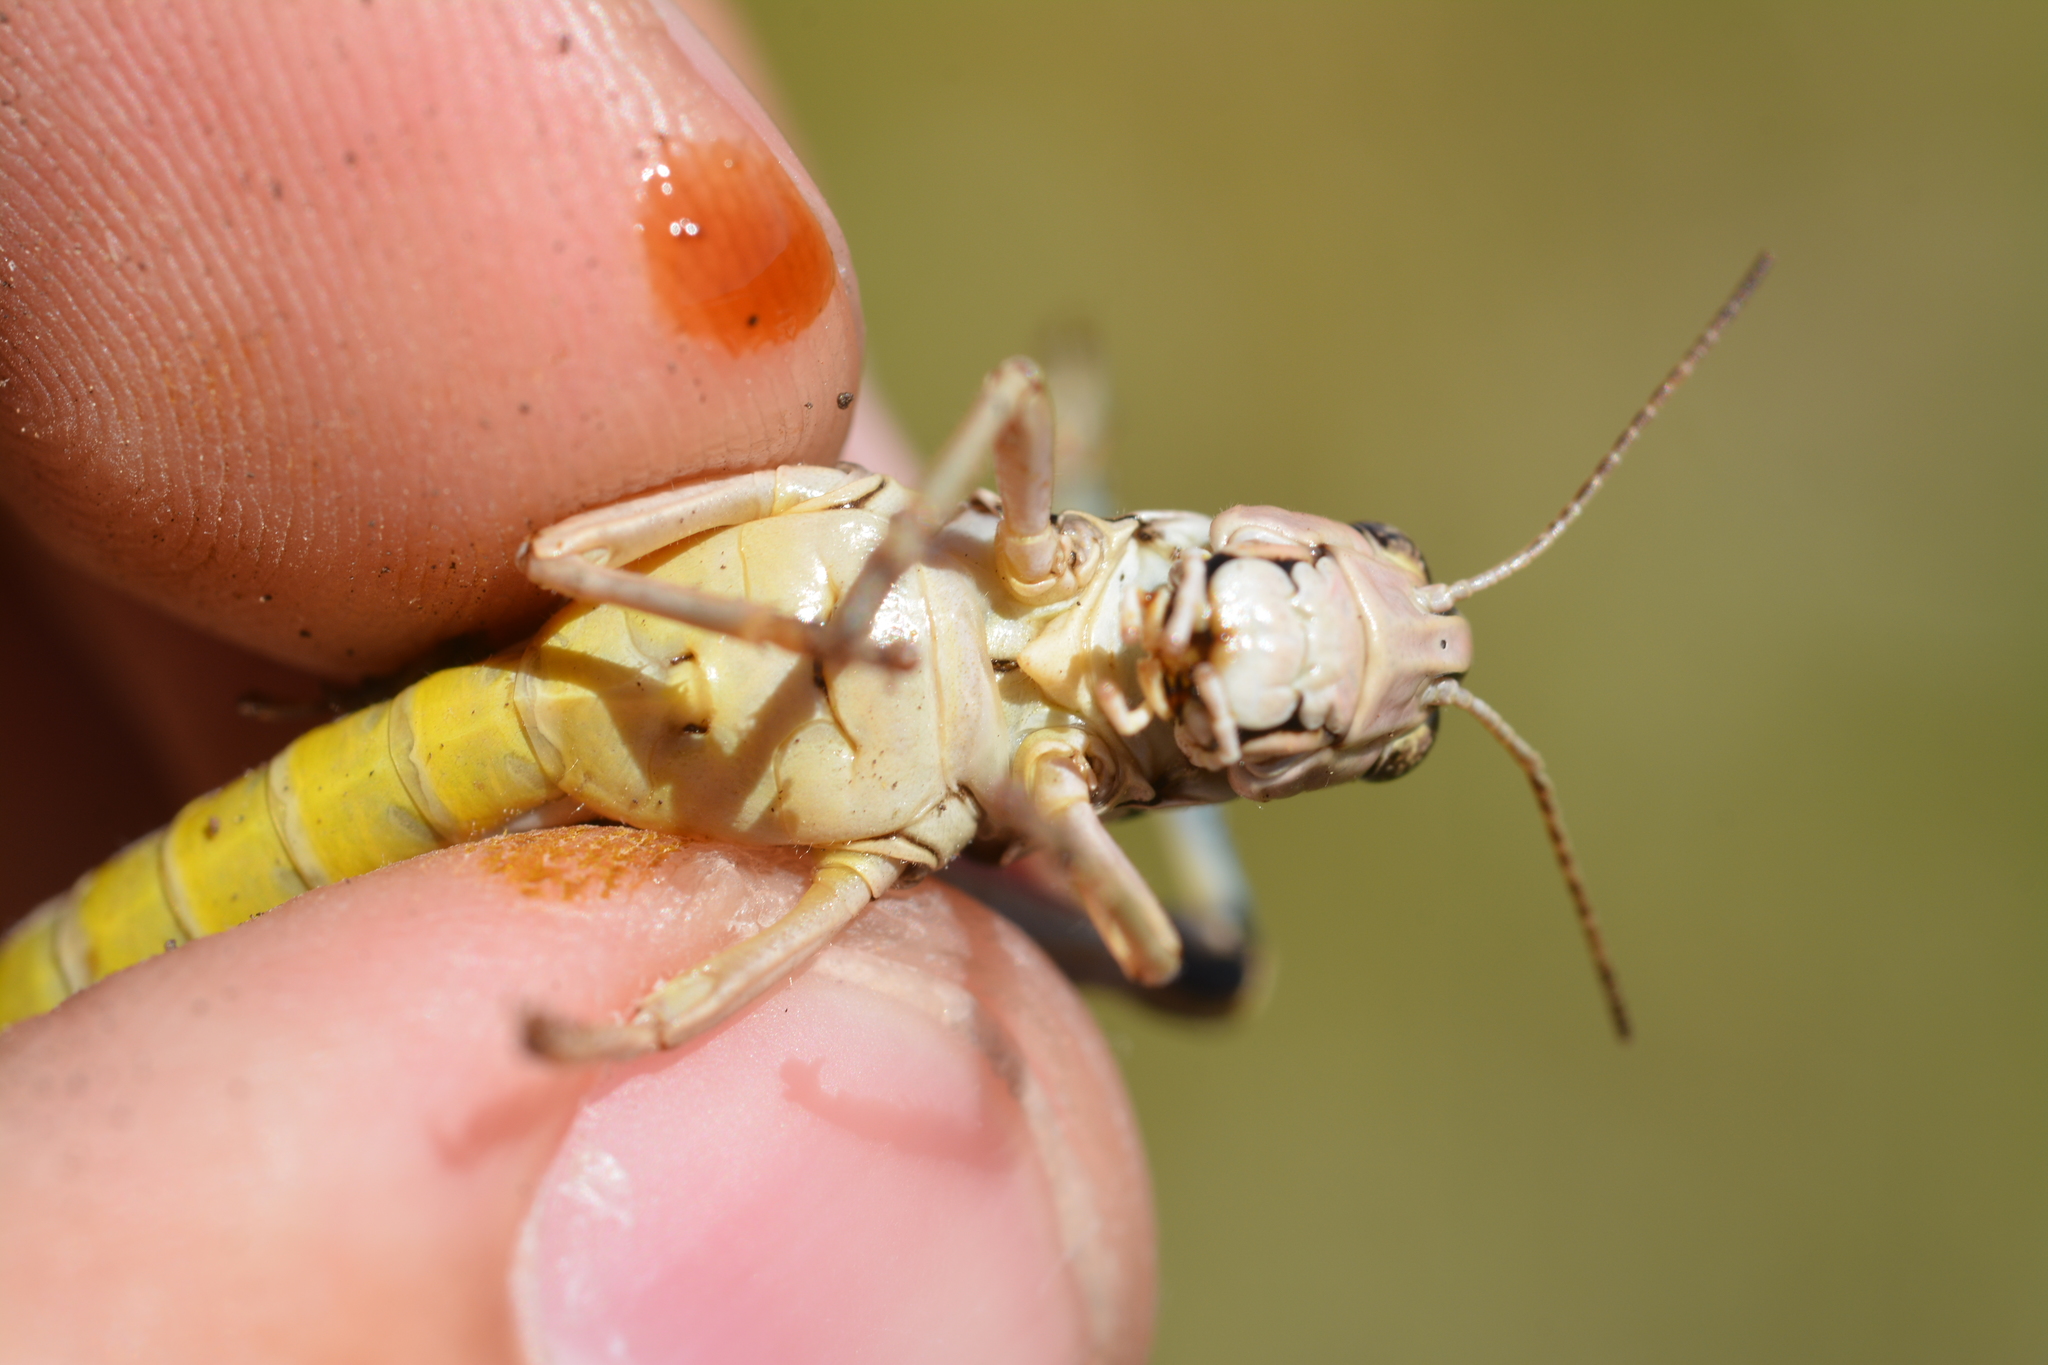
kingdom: Animalia
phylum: Arthropoda
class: Insecta
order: Orthoptera
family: Acrididae
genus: Podisma
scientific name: Podisma amedegnatoae
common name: Ventoux mountain grasshopper
